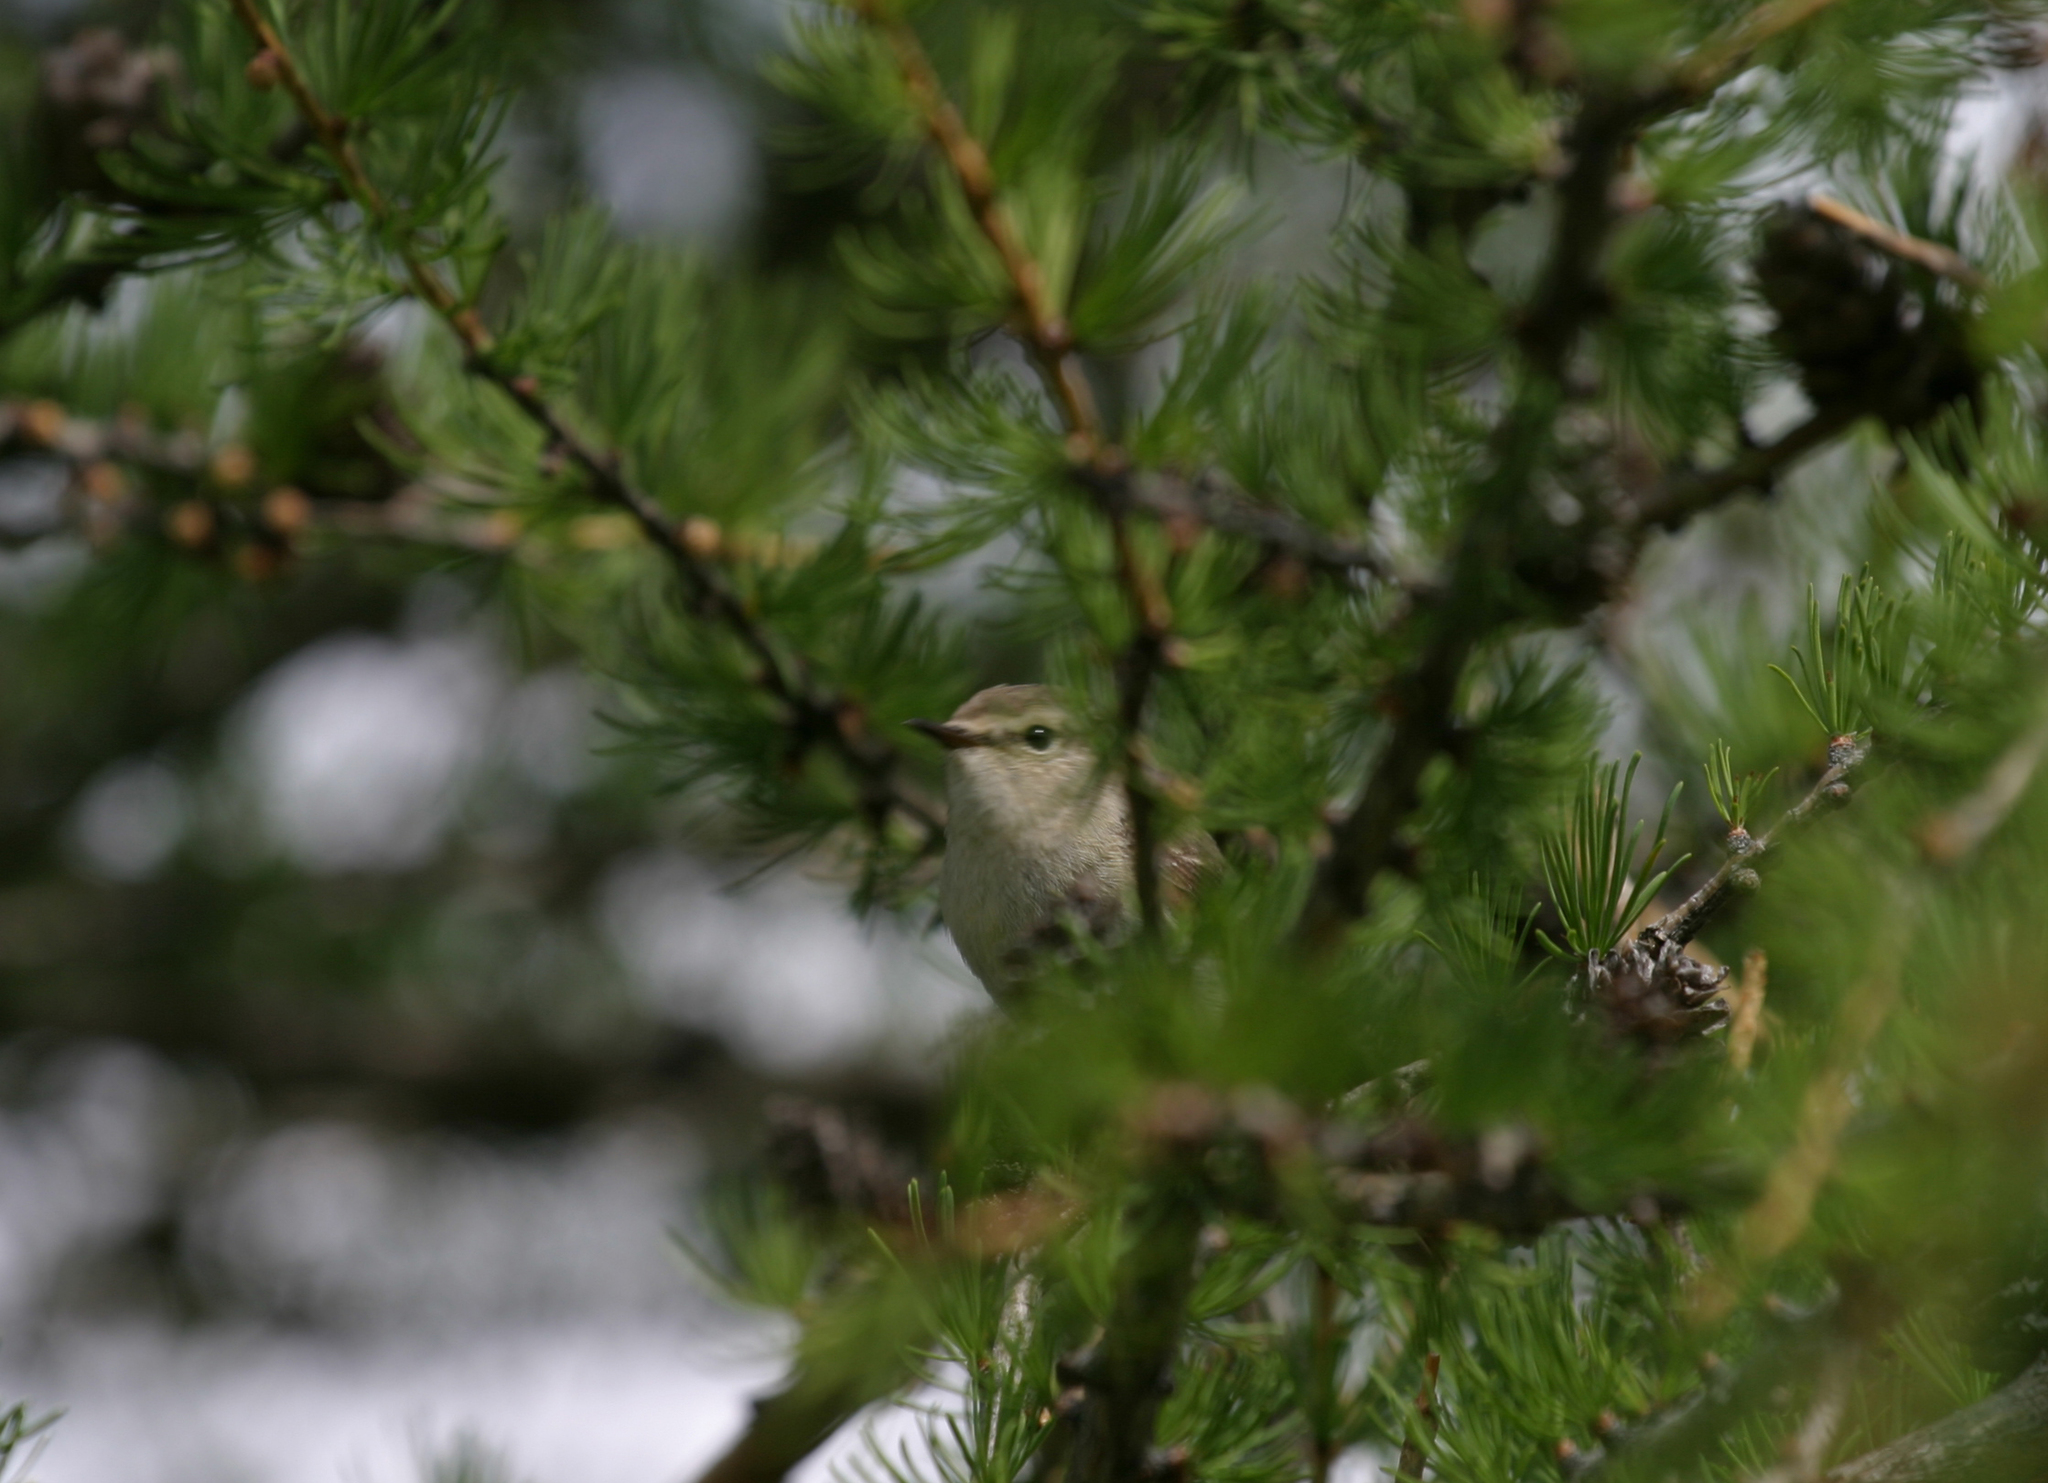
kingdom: Animalia
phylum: Chordata
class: Aves
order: Passeriformes
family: Phylloscopidae
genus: Phylloscopus
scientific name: Phylloscopus humei
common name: Hume's leaf warbler
